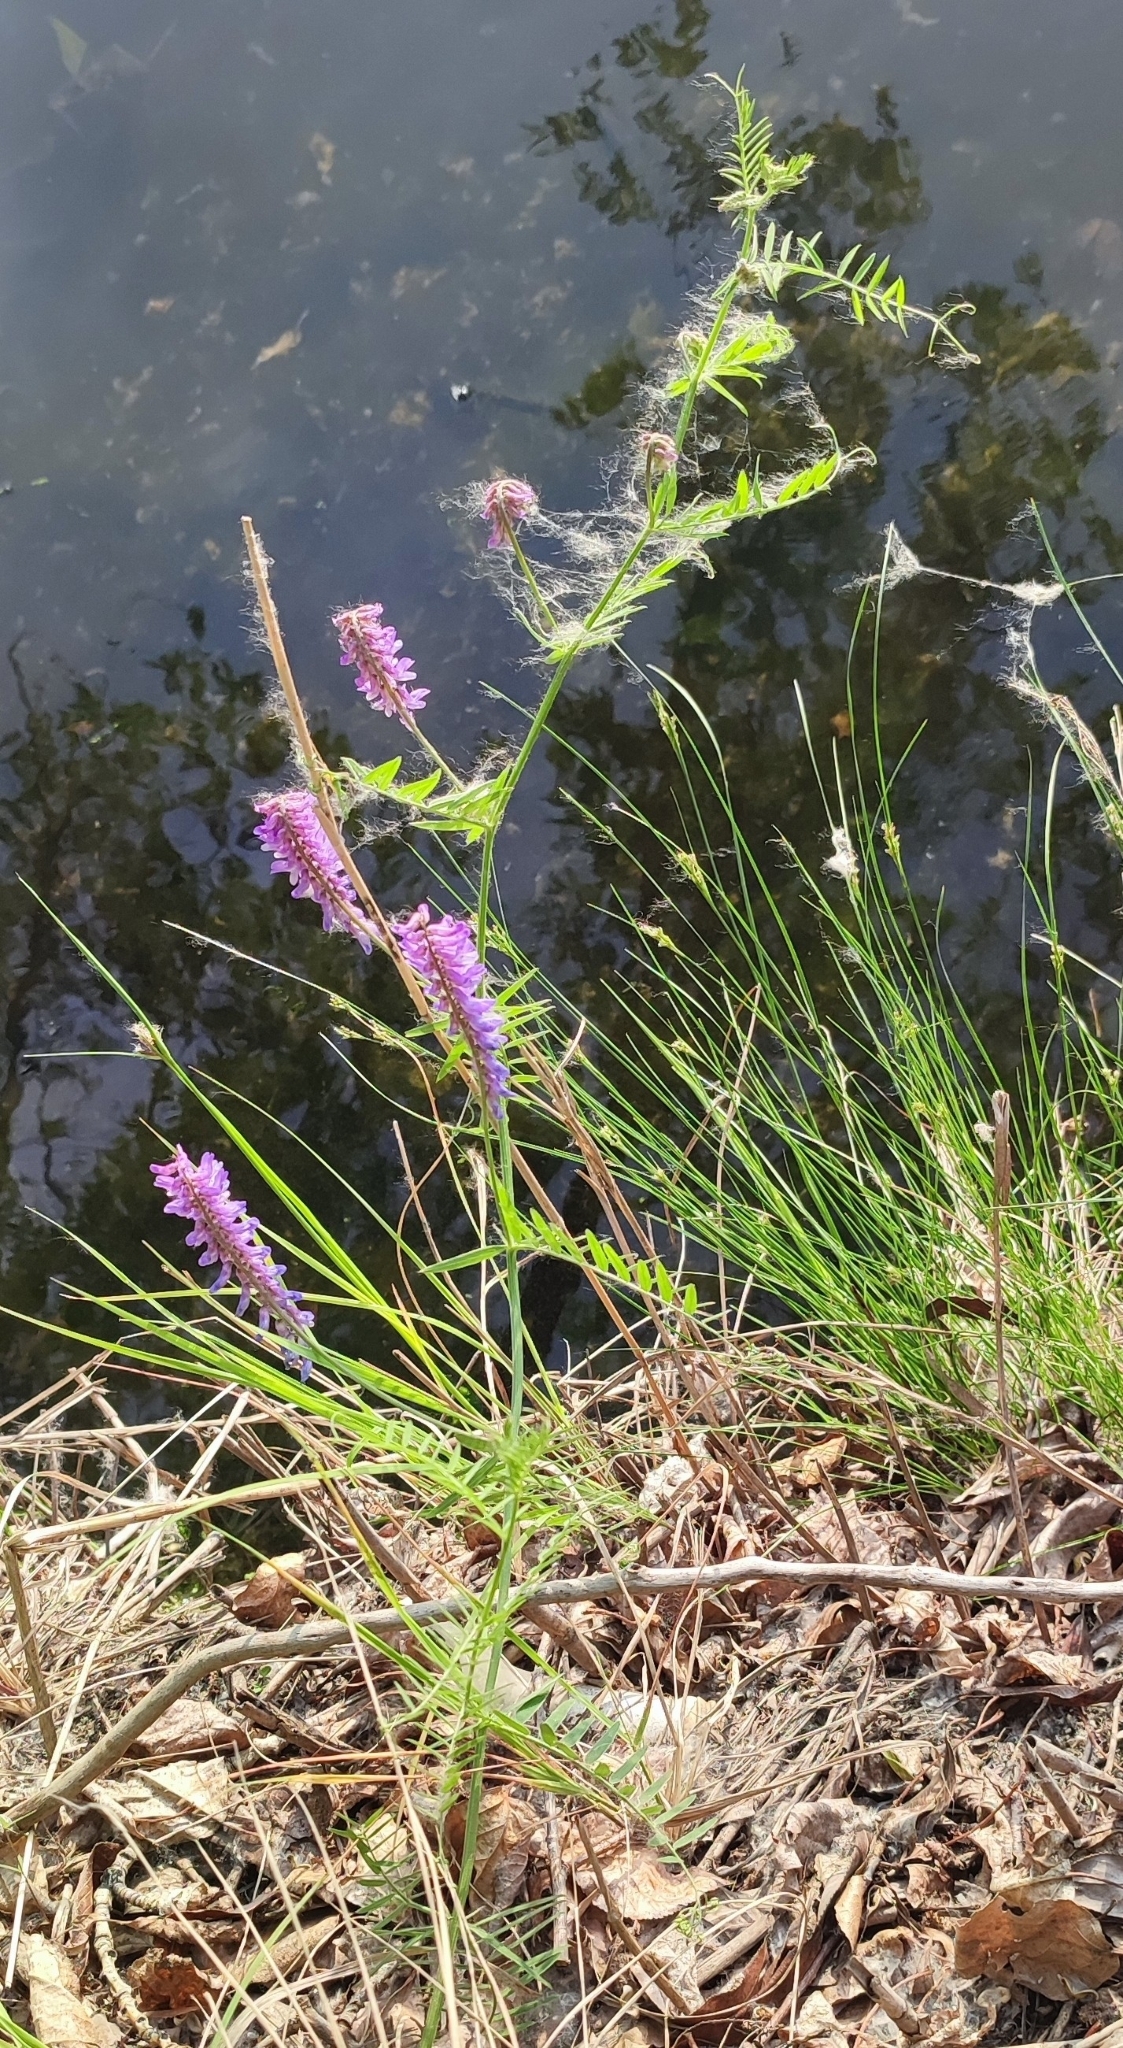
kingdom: Plantae
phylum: Tracheophyta
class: Magnoliopsida
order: Fabales
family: Fabaceae
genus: Vicia
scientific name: Vicia tenuifolia
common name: Fine-leaved vetch
